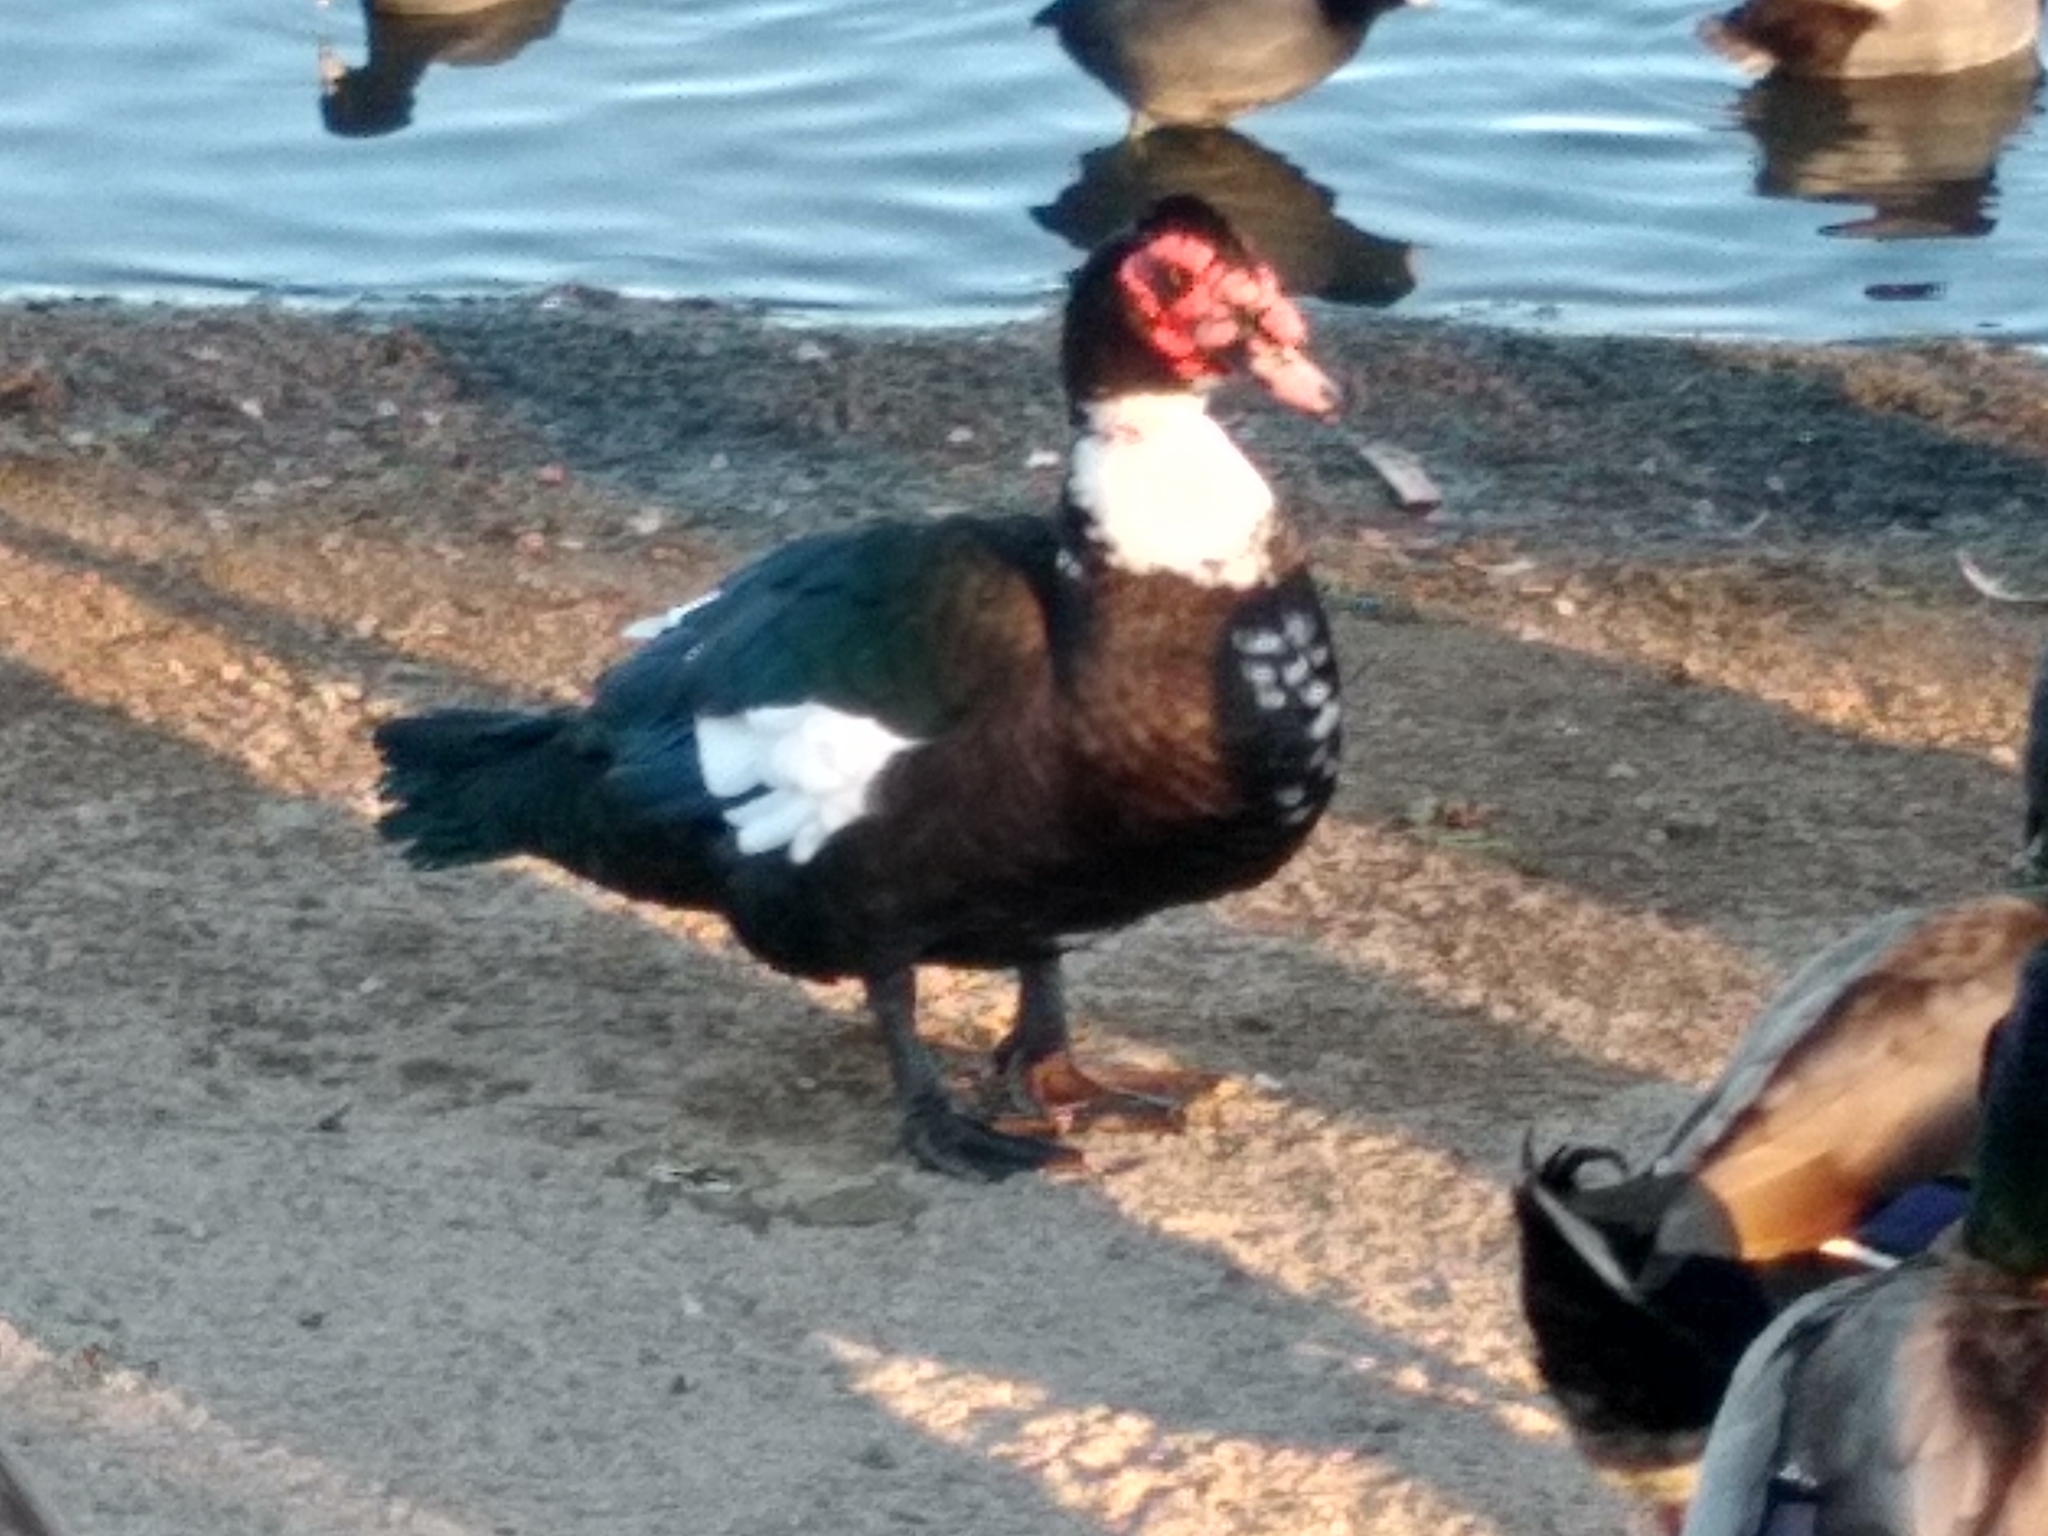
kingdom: Animalia
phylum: Chordata
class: Aves
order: Anseriformes
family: Anatidae
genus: Cairina
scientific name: Cairina moschata
